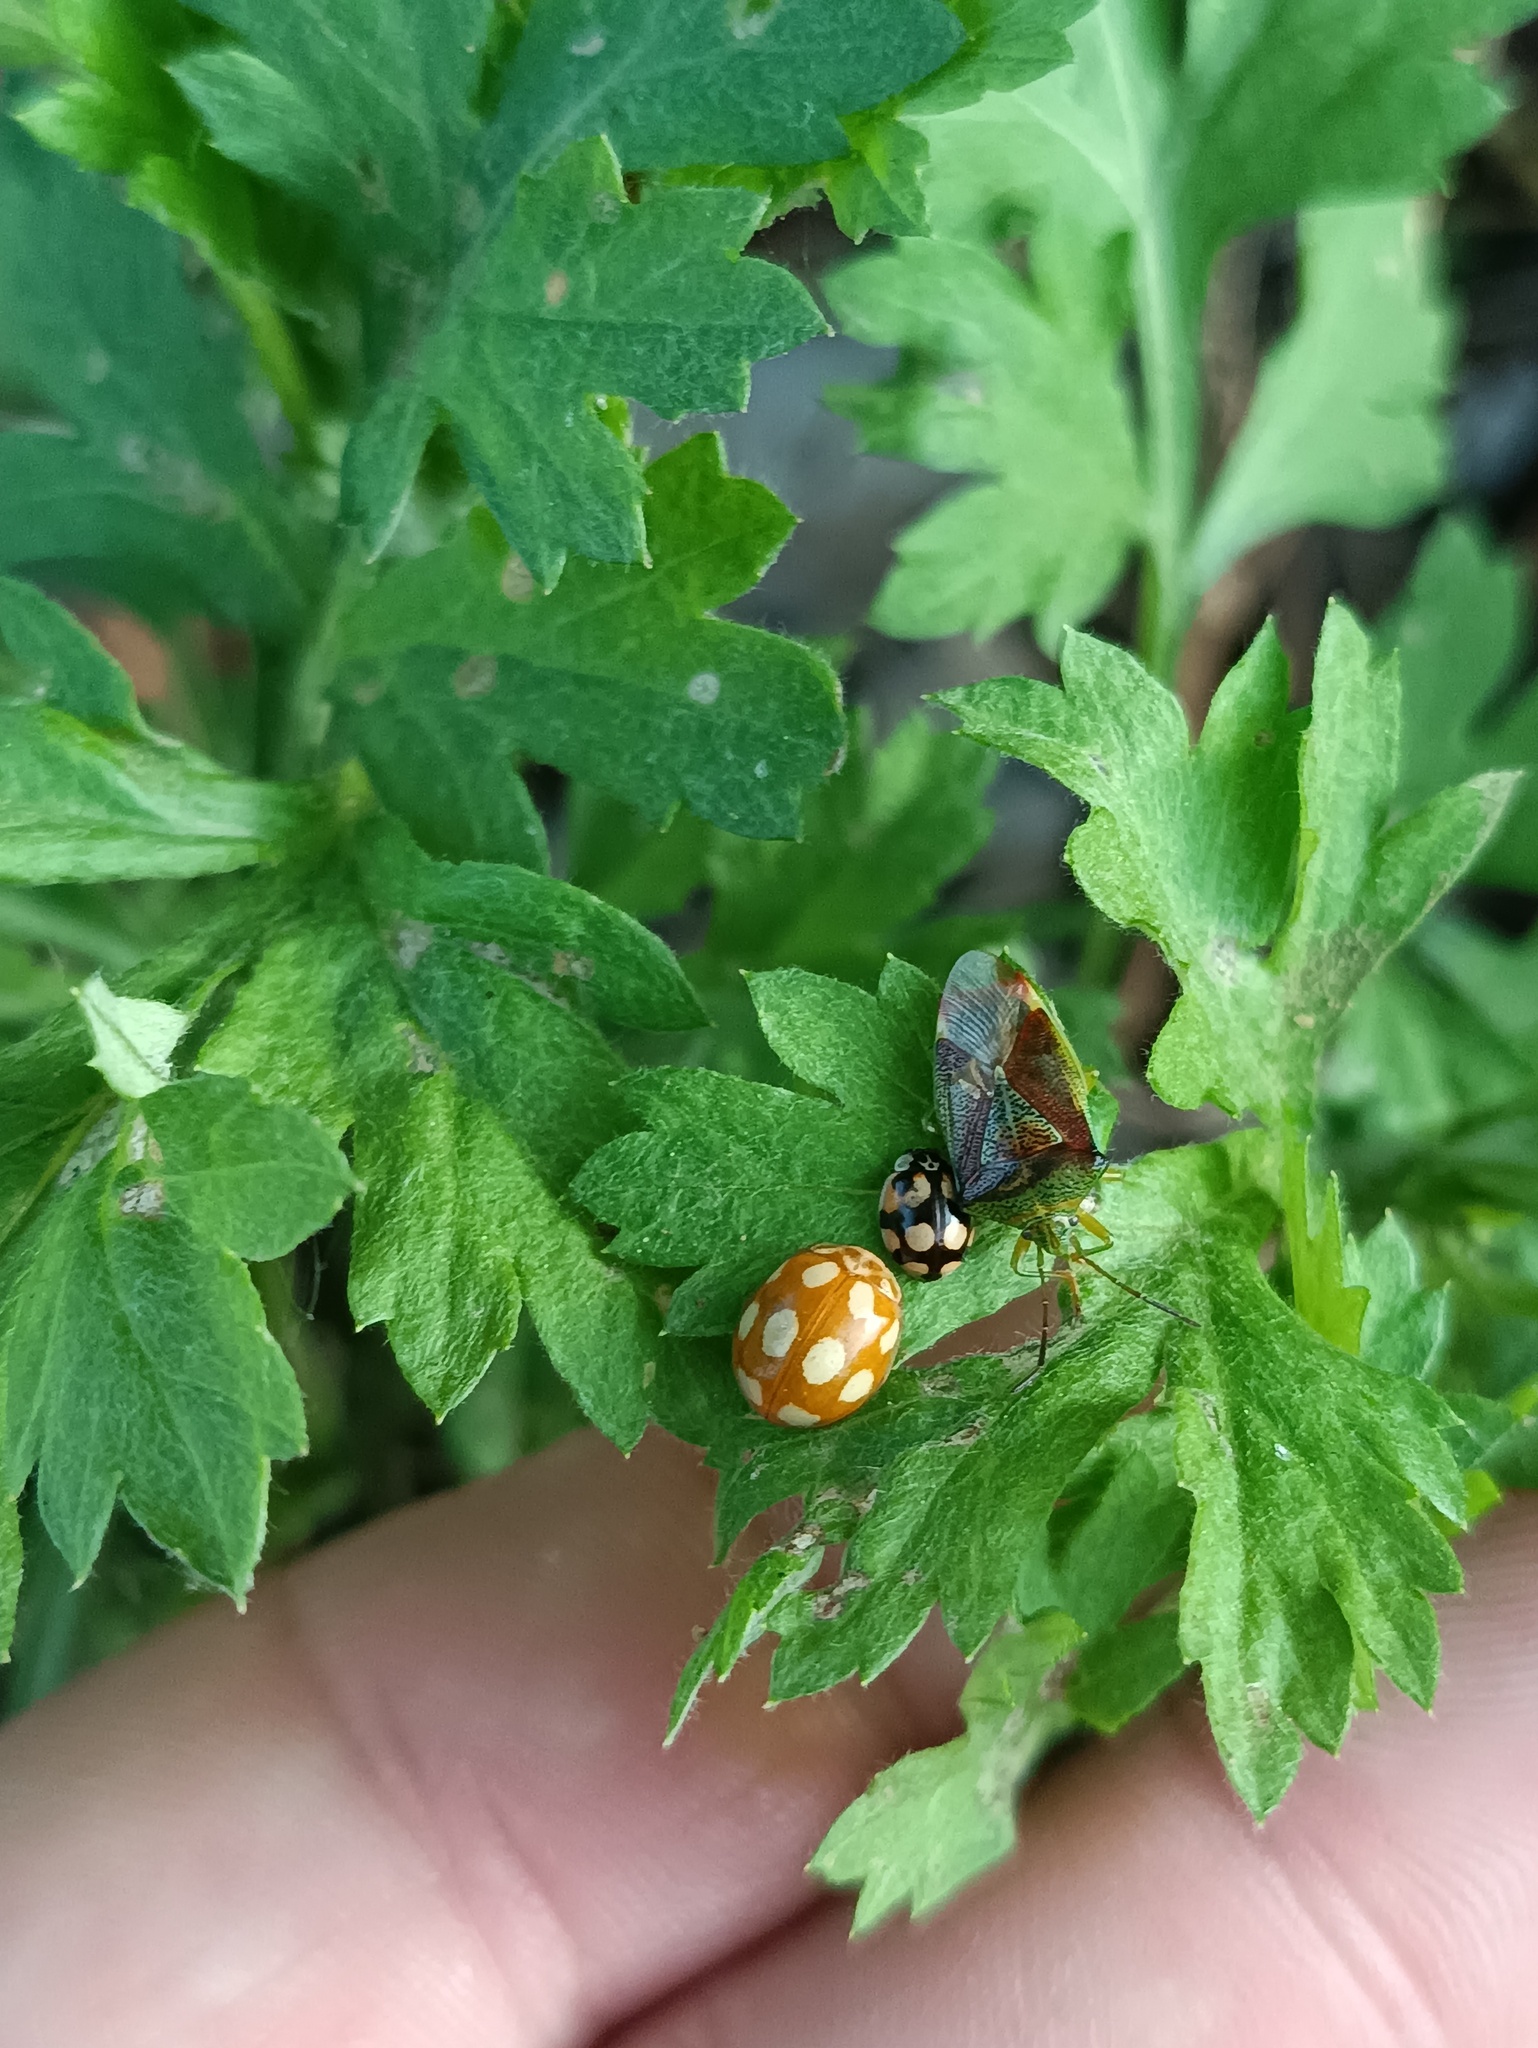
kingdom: Animalia
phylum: Arthropoda
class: Insecta
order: Coleoptera
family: Coccinellidae
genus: Calvia
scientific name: Calvia decemguttata
